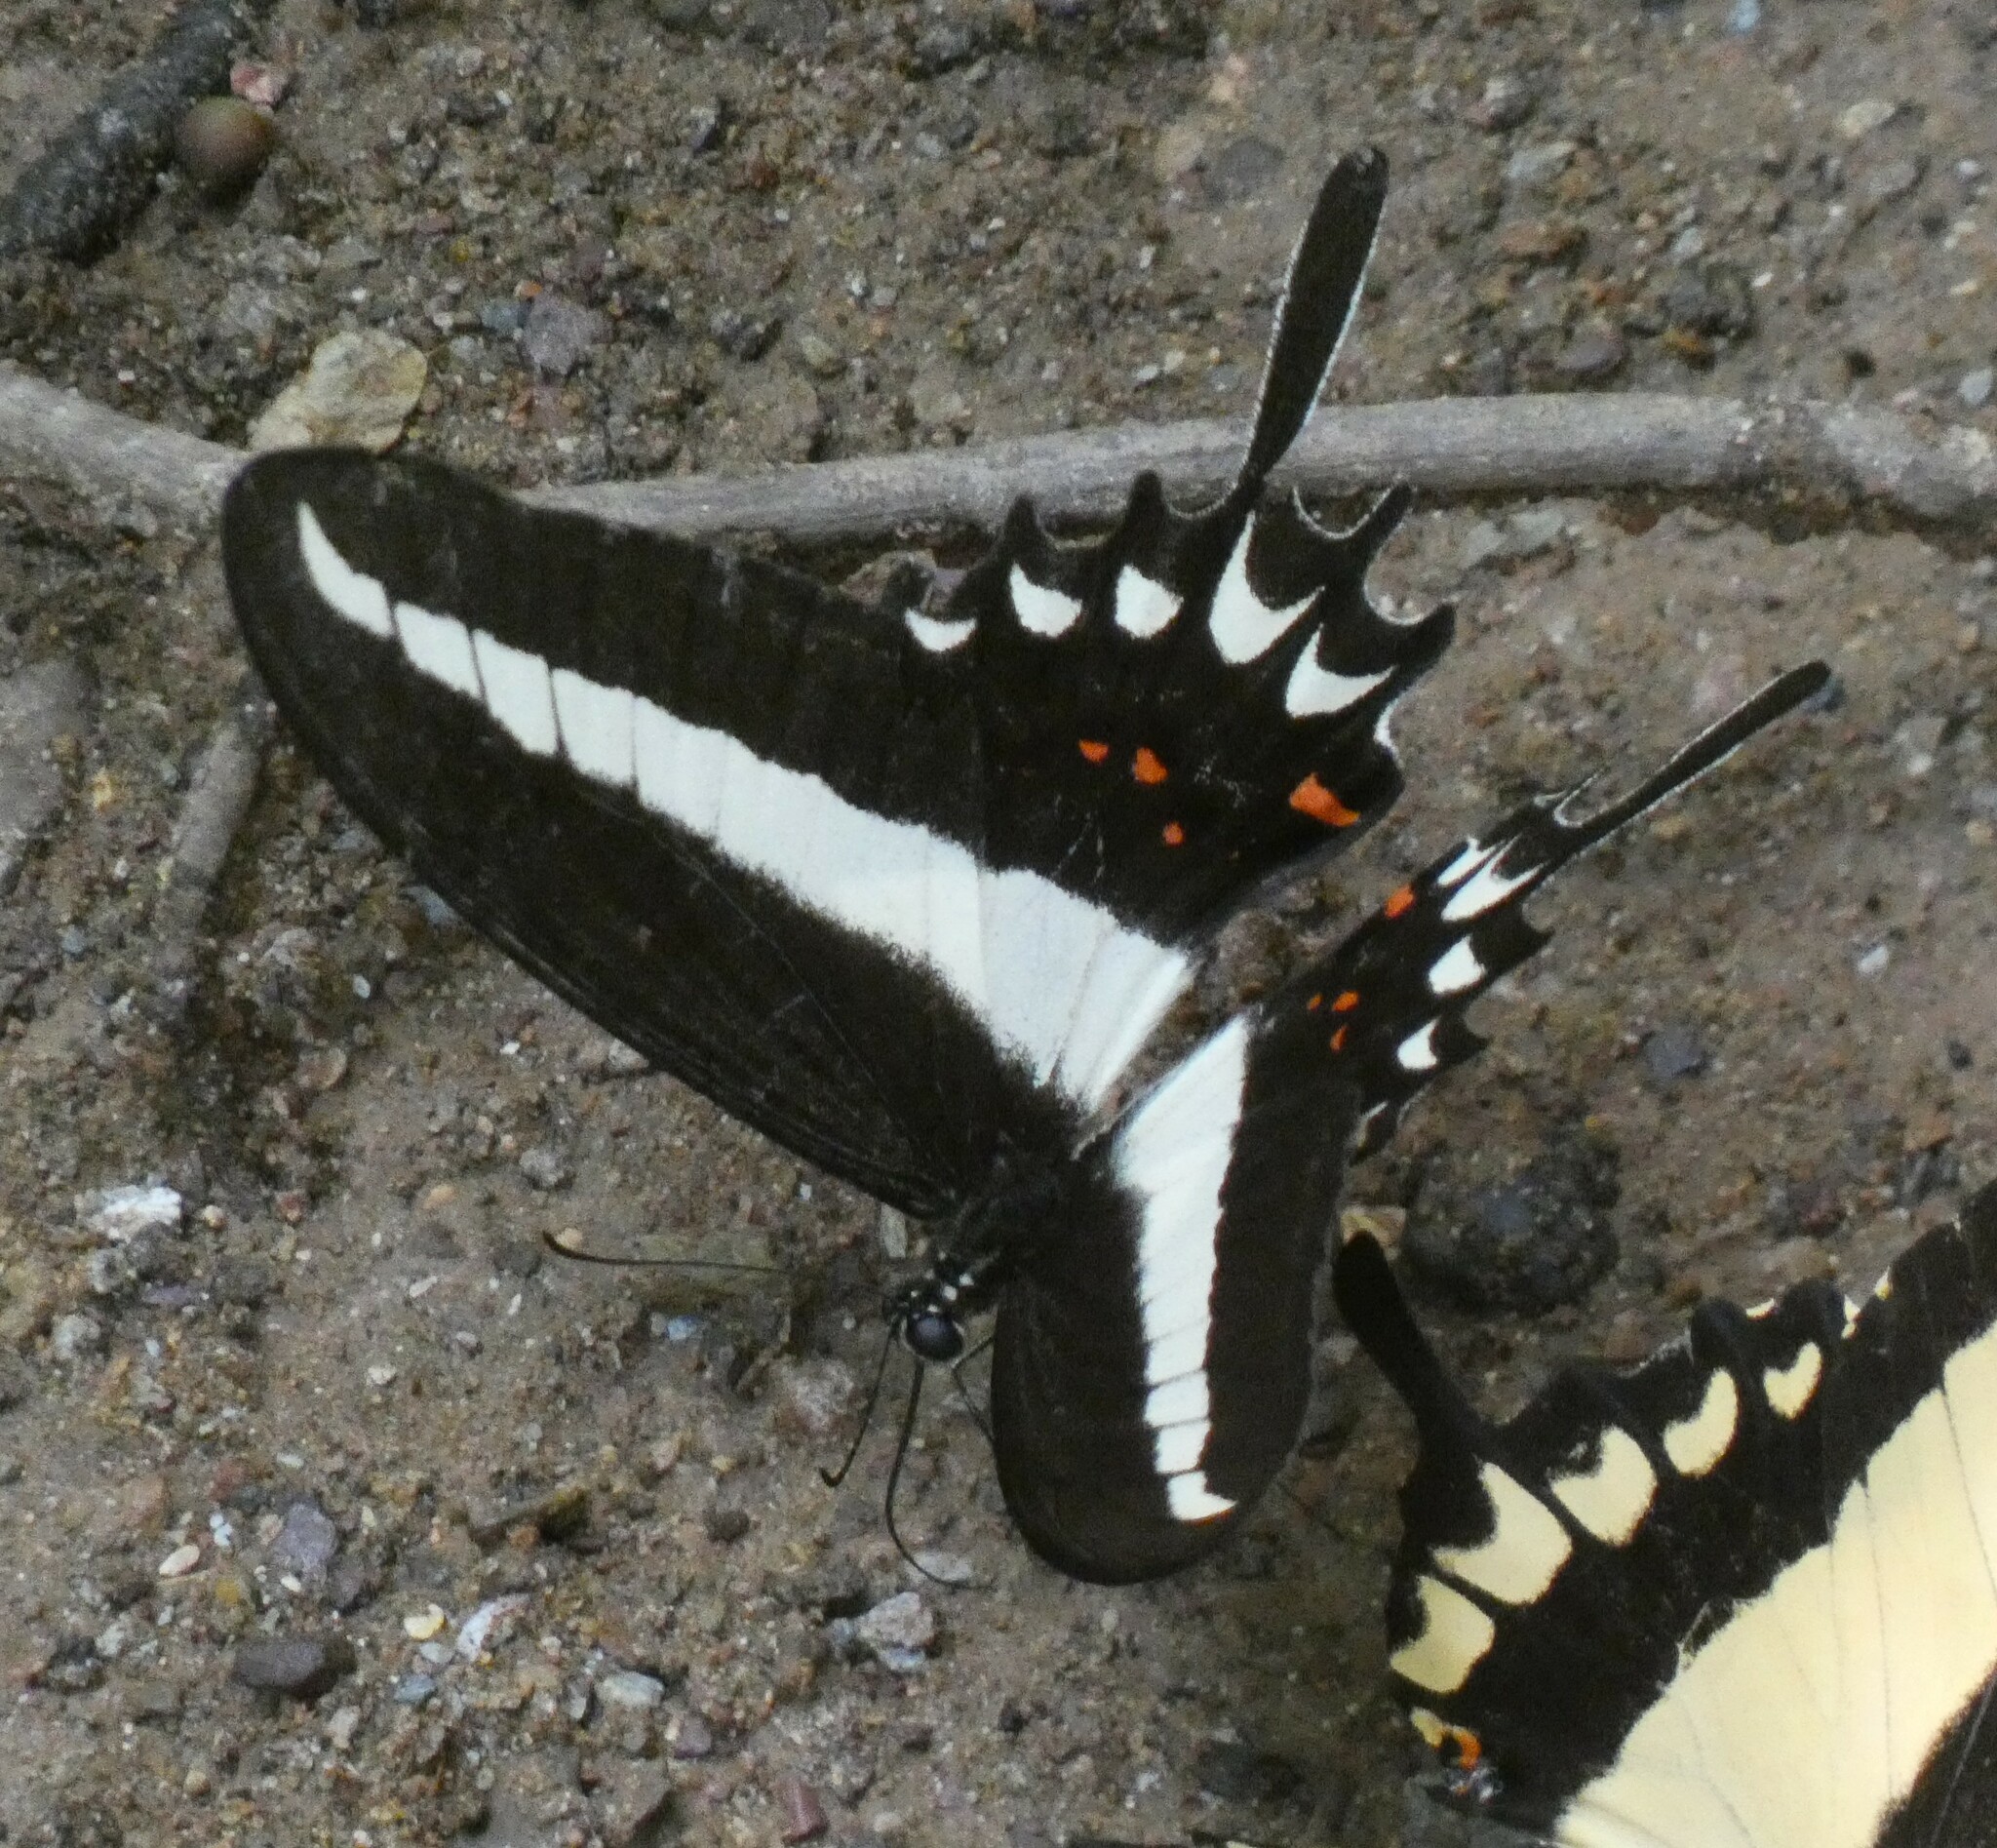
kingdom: Animalia
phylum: Arthropoda
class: Insecta
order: Lepidoptera
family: Papilionidae
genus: Heraclides
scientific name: Heraclides hectorides
